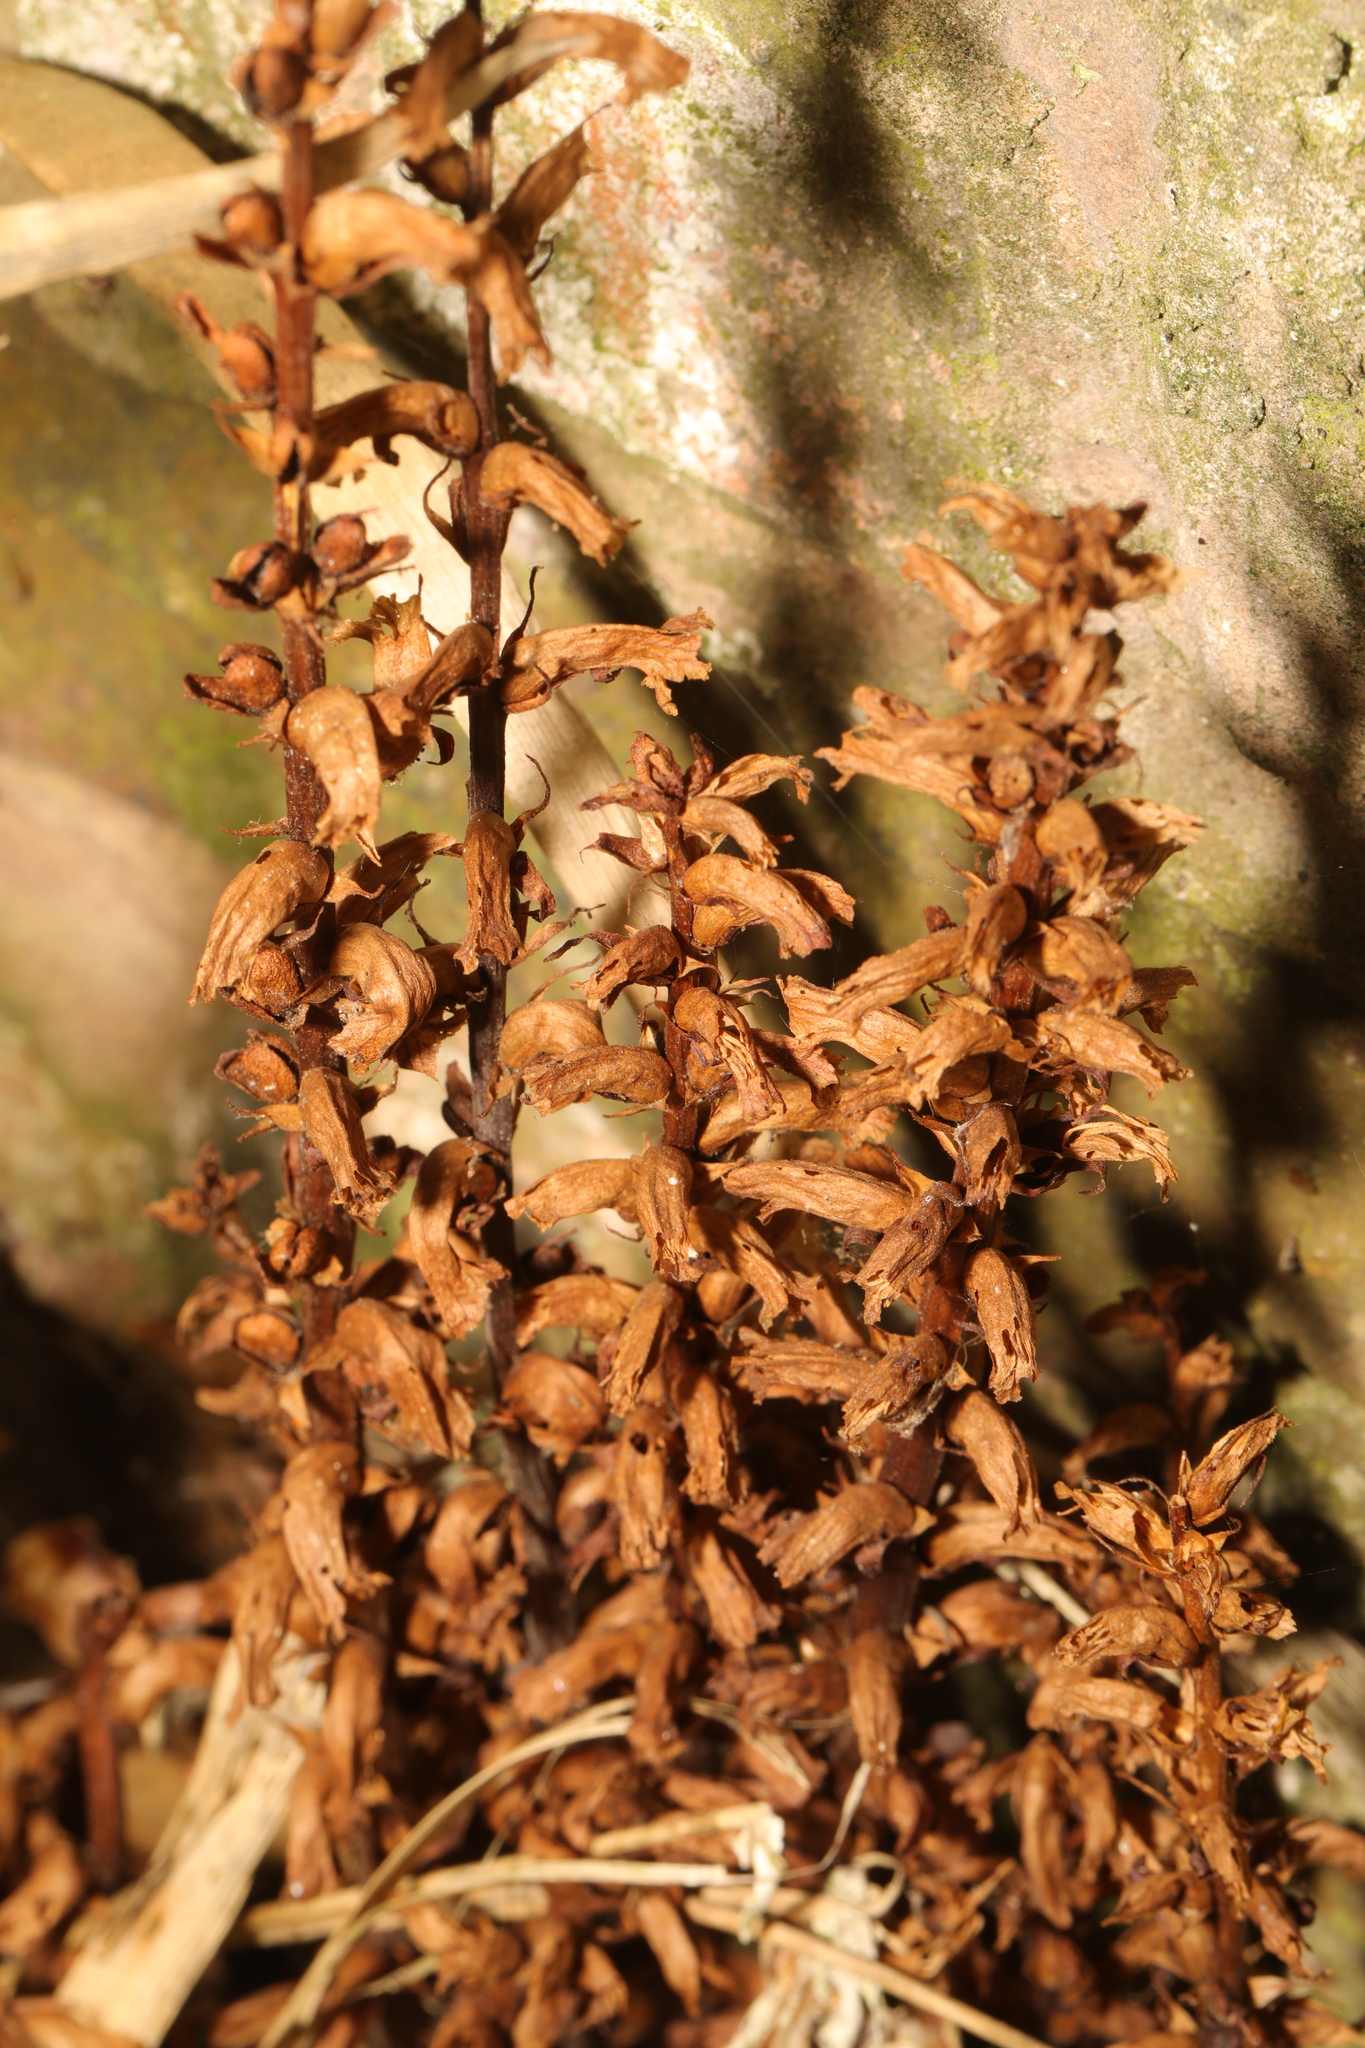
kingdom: Plantae
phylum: Tracheophyta
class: Magnoliopsida
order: Lamiales
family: Orobanchaceae
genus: Orobanche
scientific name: Orobanche hederae
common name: Ivy broomrape
